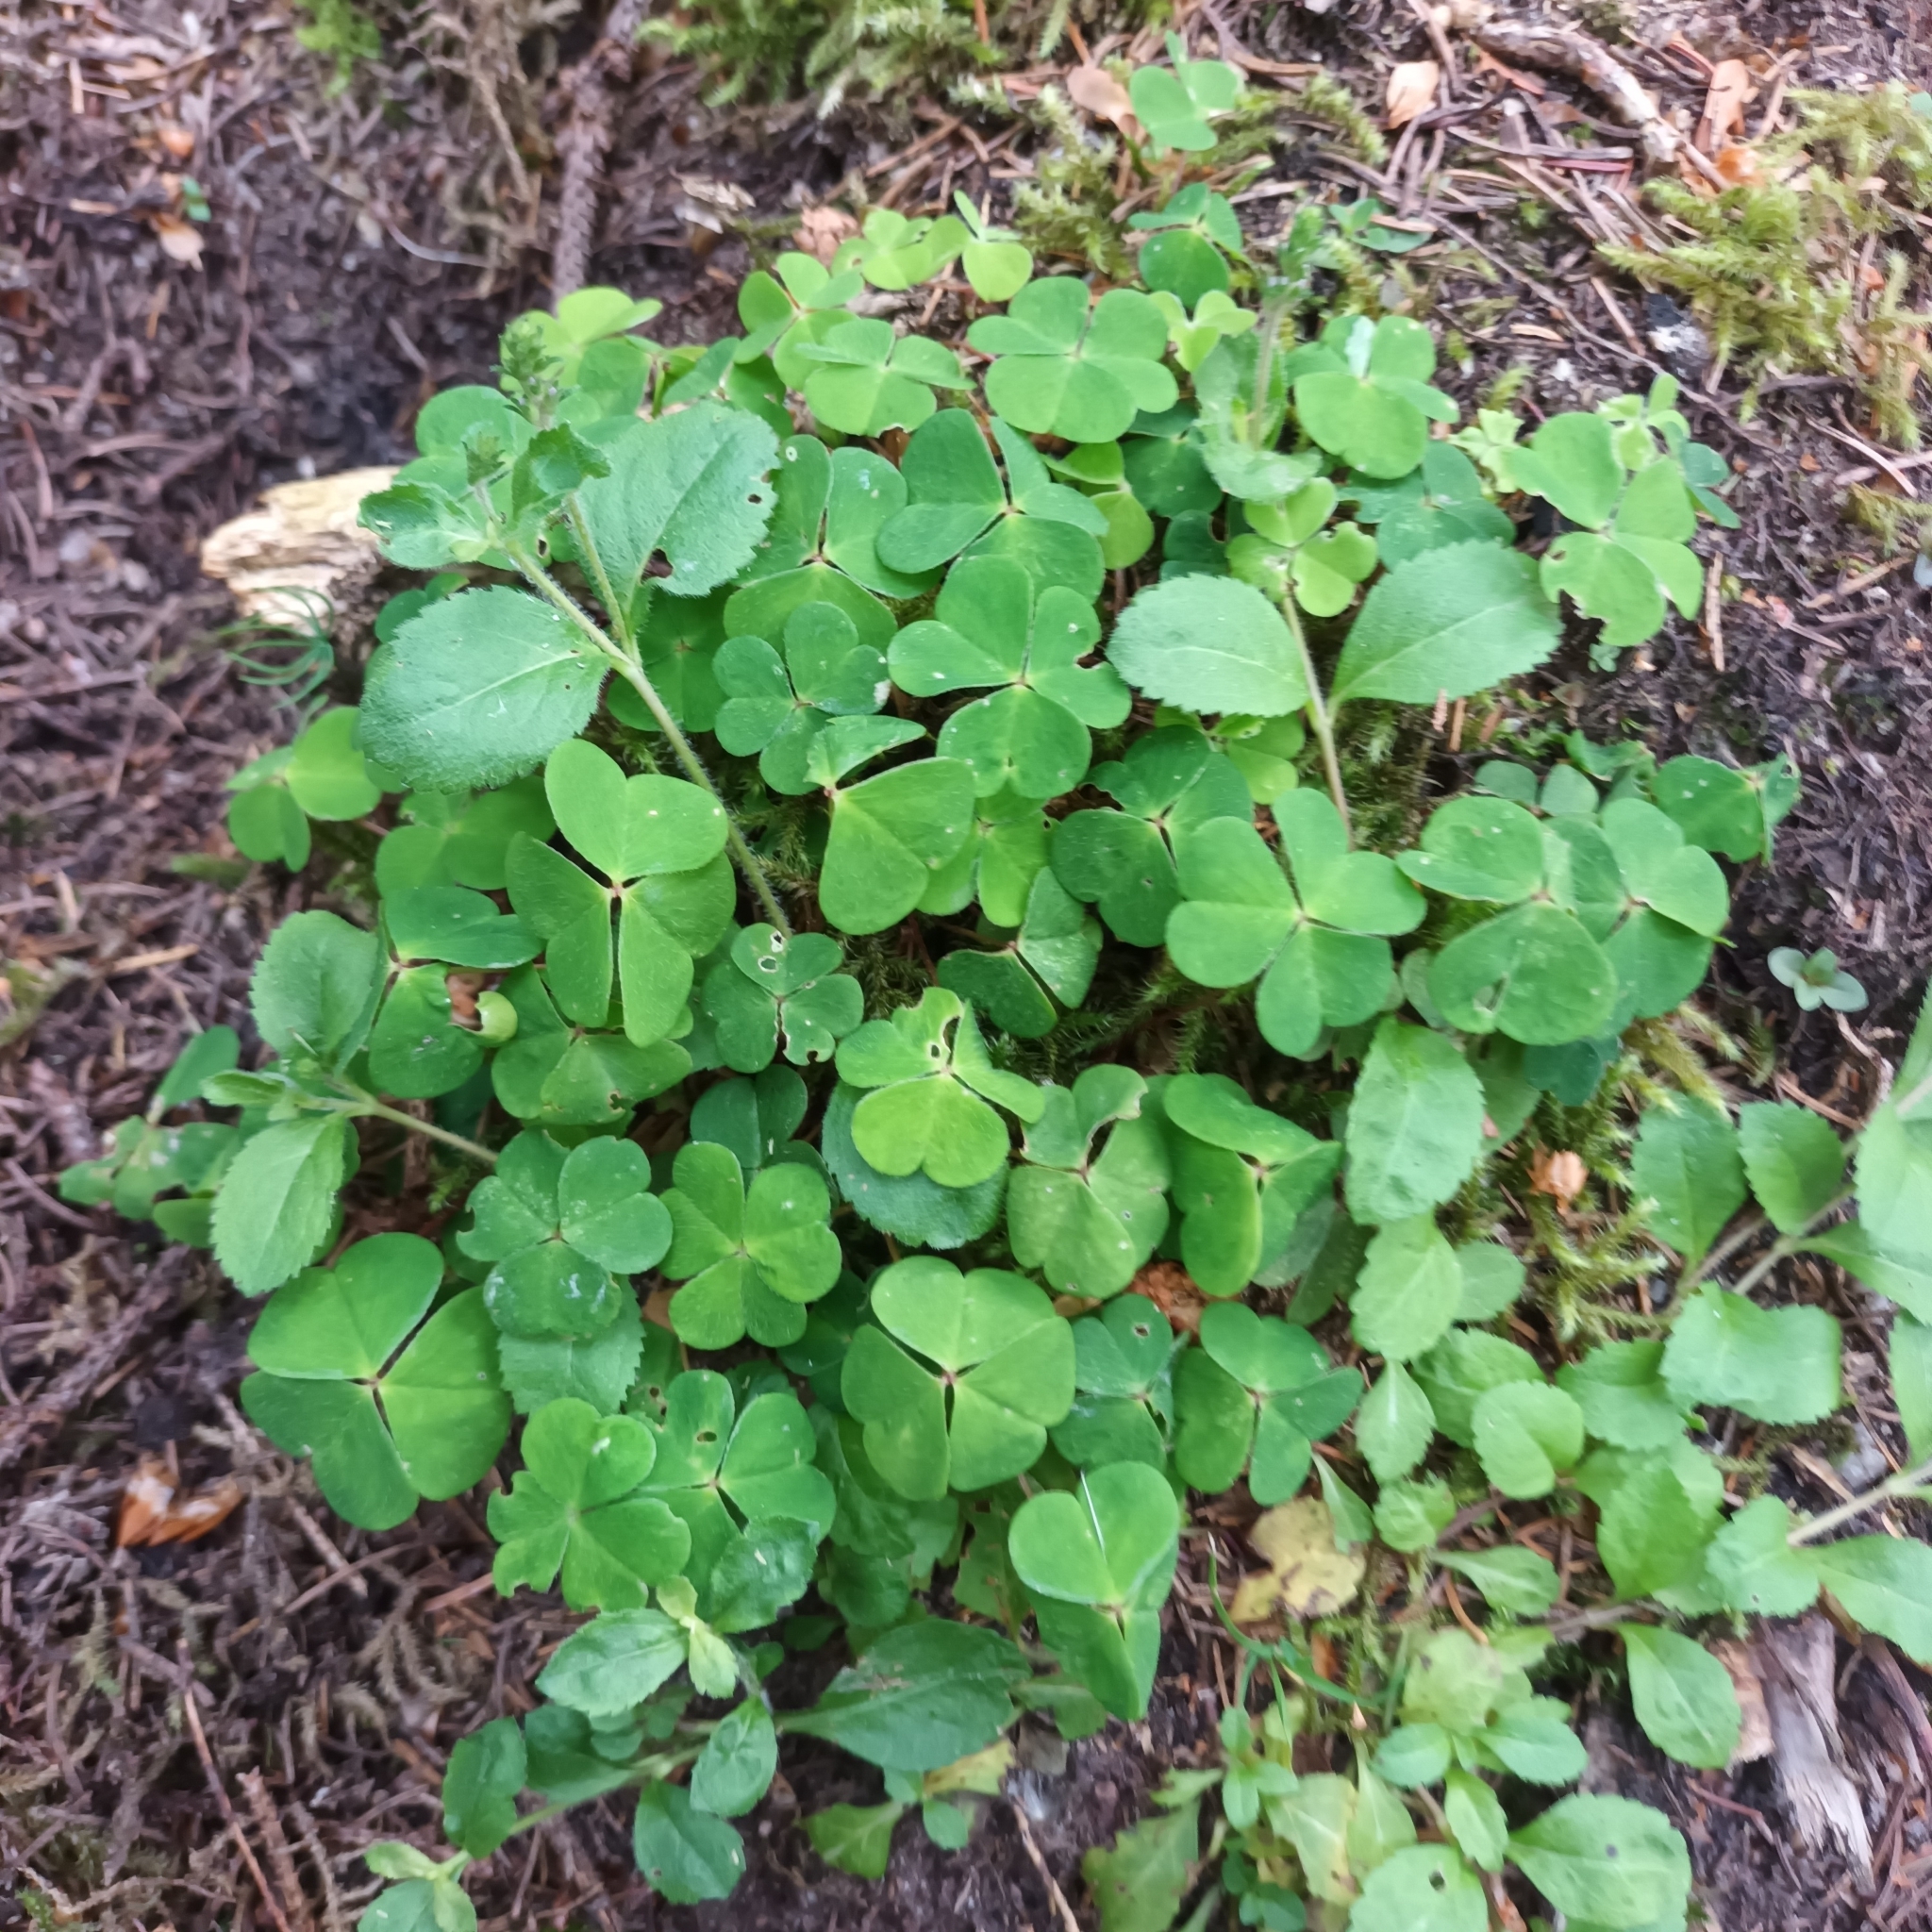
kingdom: Plantae
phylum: Tracheophyta
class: Magnoliopsida
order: Oxalidales
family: Oxalidaceae
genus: Oxalis
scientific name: Oxalis acetosella
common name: Wood-sorrel
